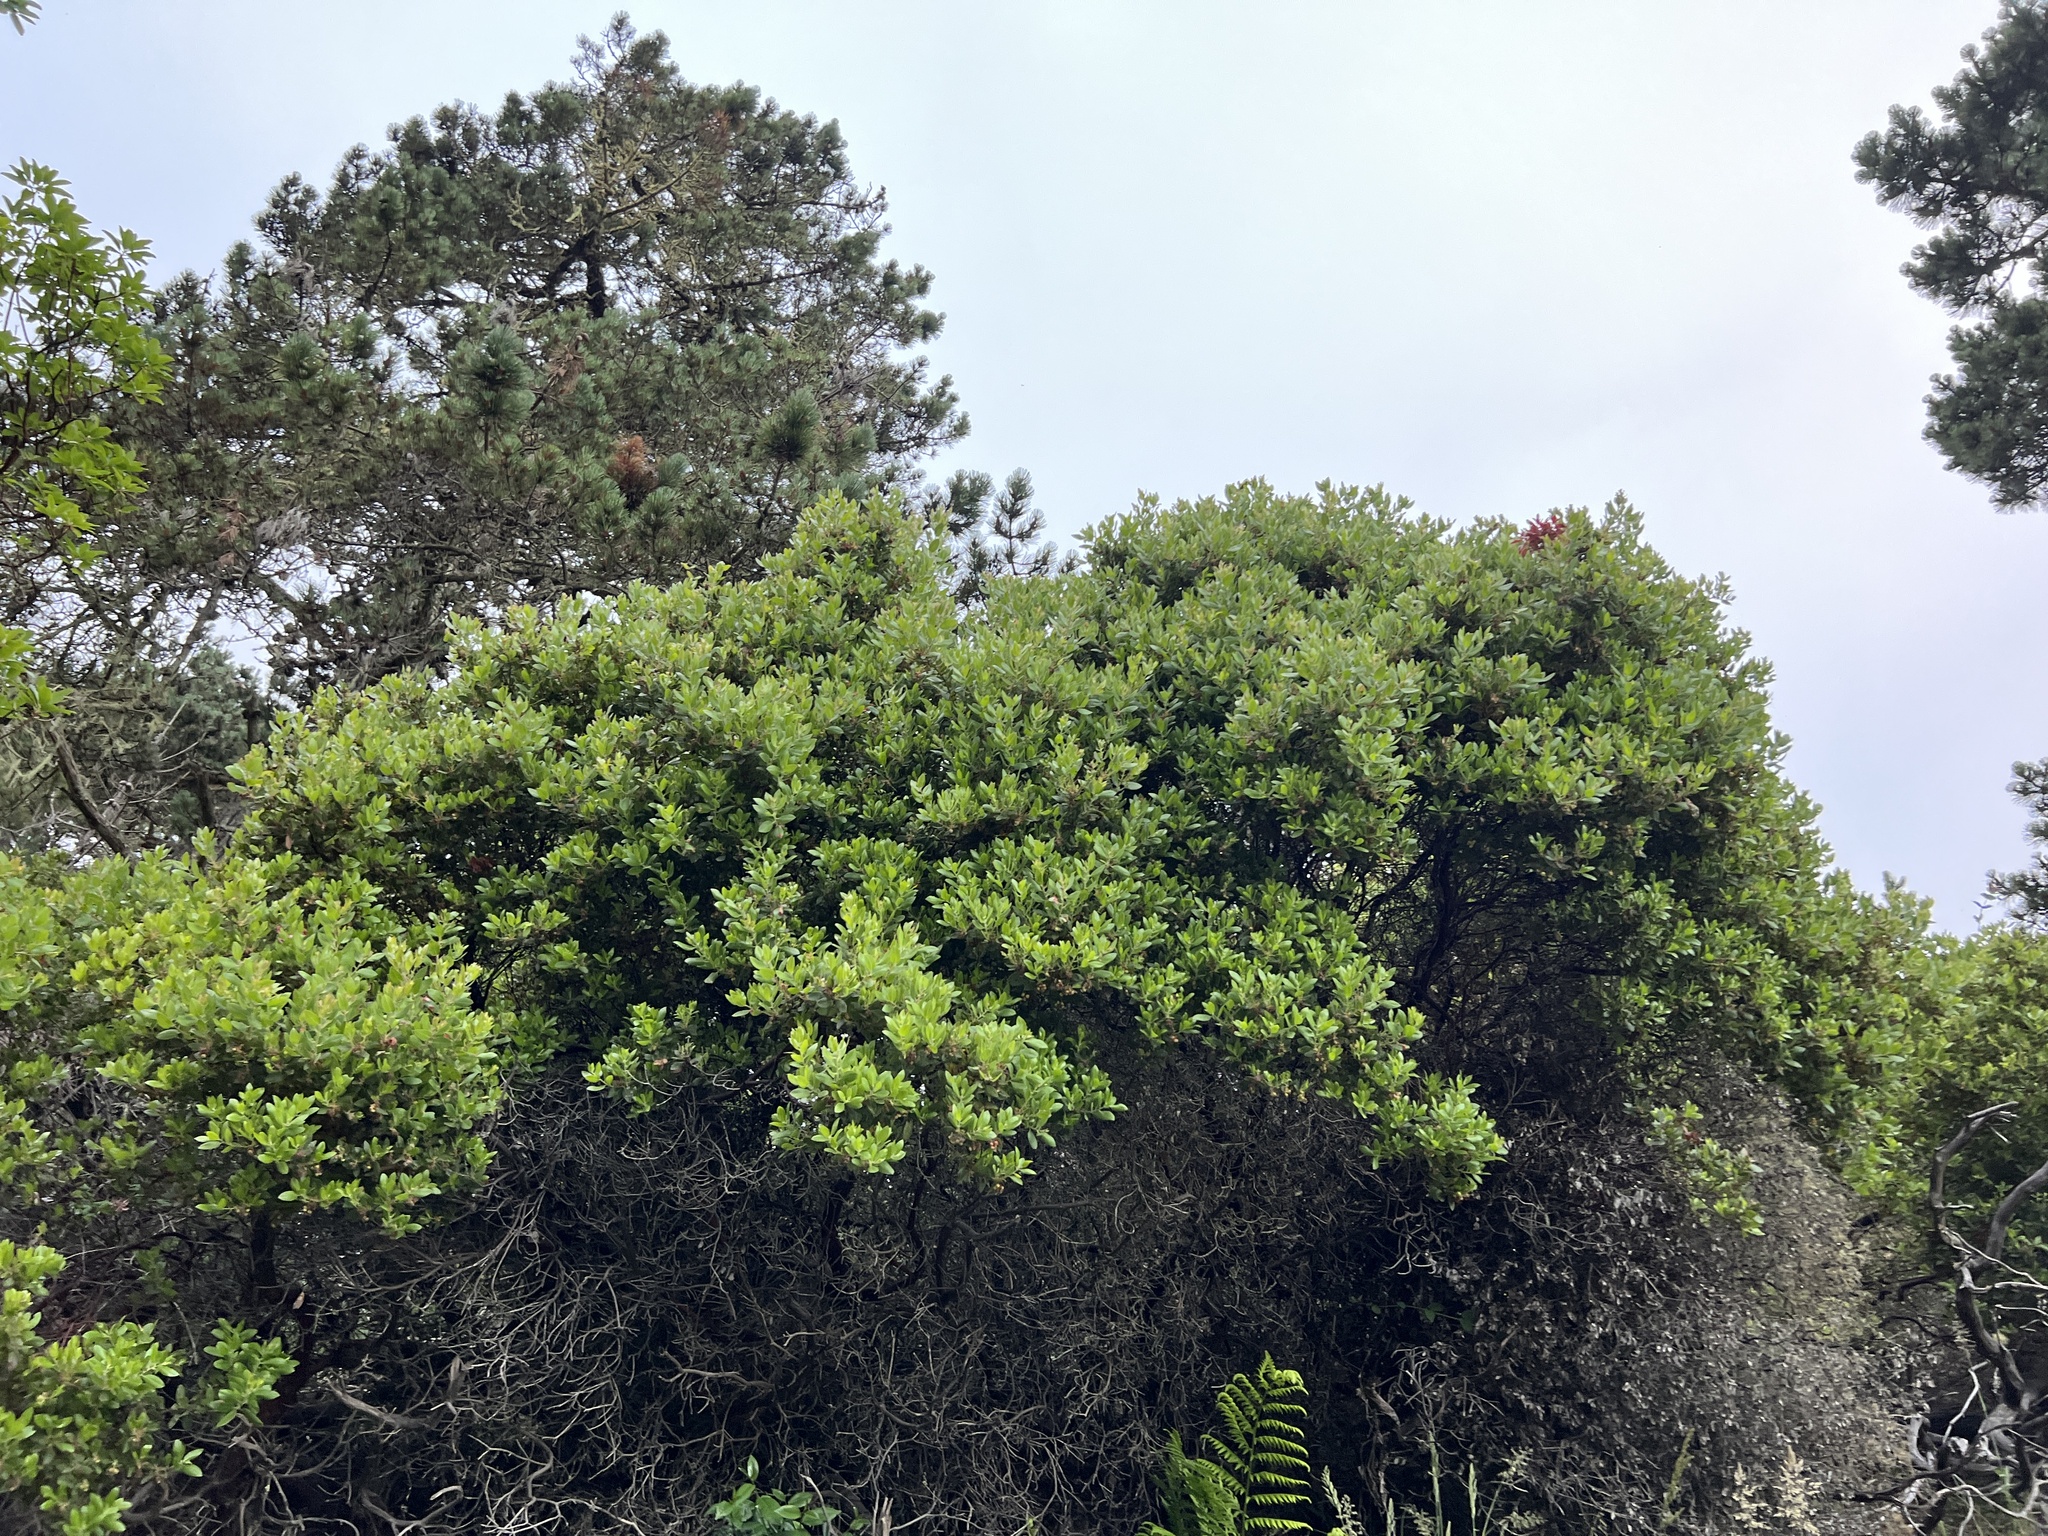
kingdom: Plantae
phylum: Tracheophyta
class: Magnoliopsida
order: Ericales
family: Ericaceae
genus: Arctostaphylos
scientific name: Arctostaphylos virgata
